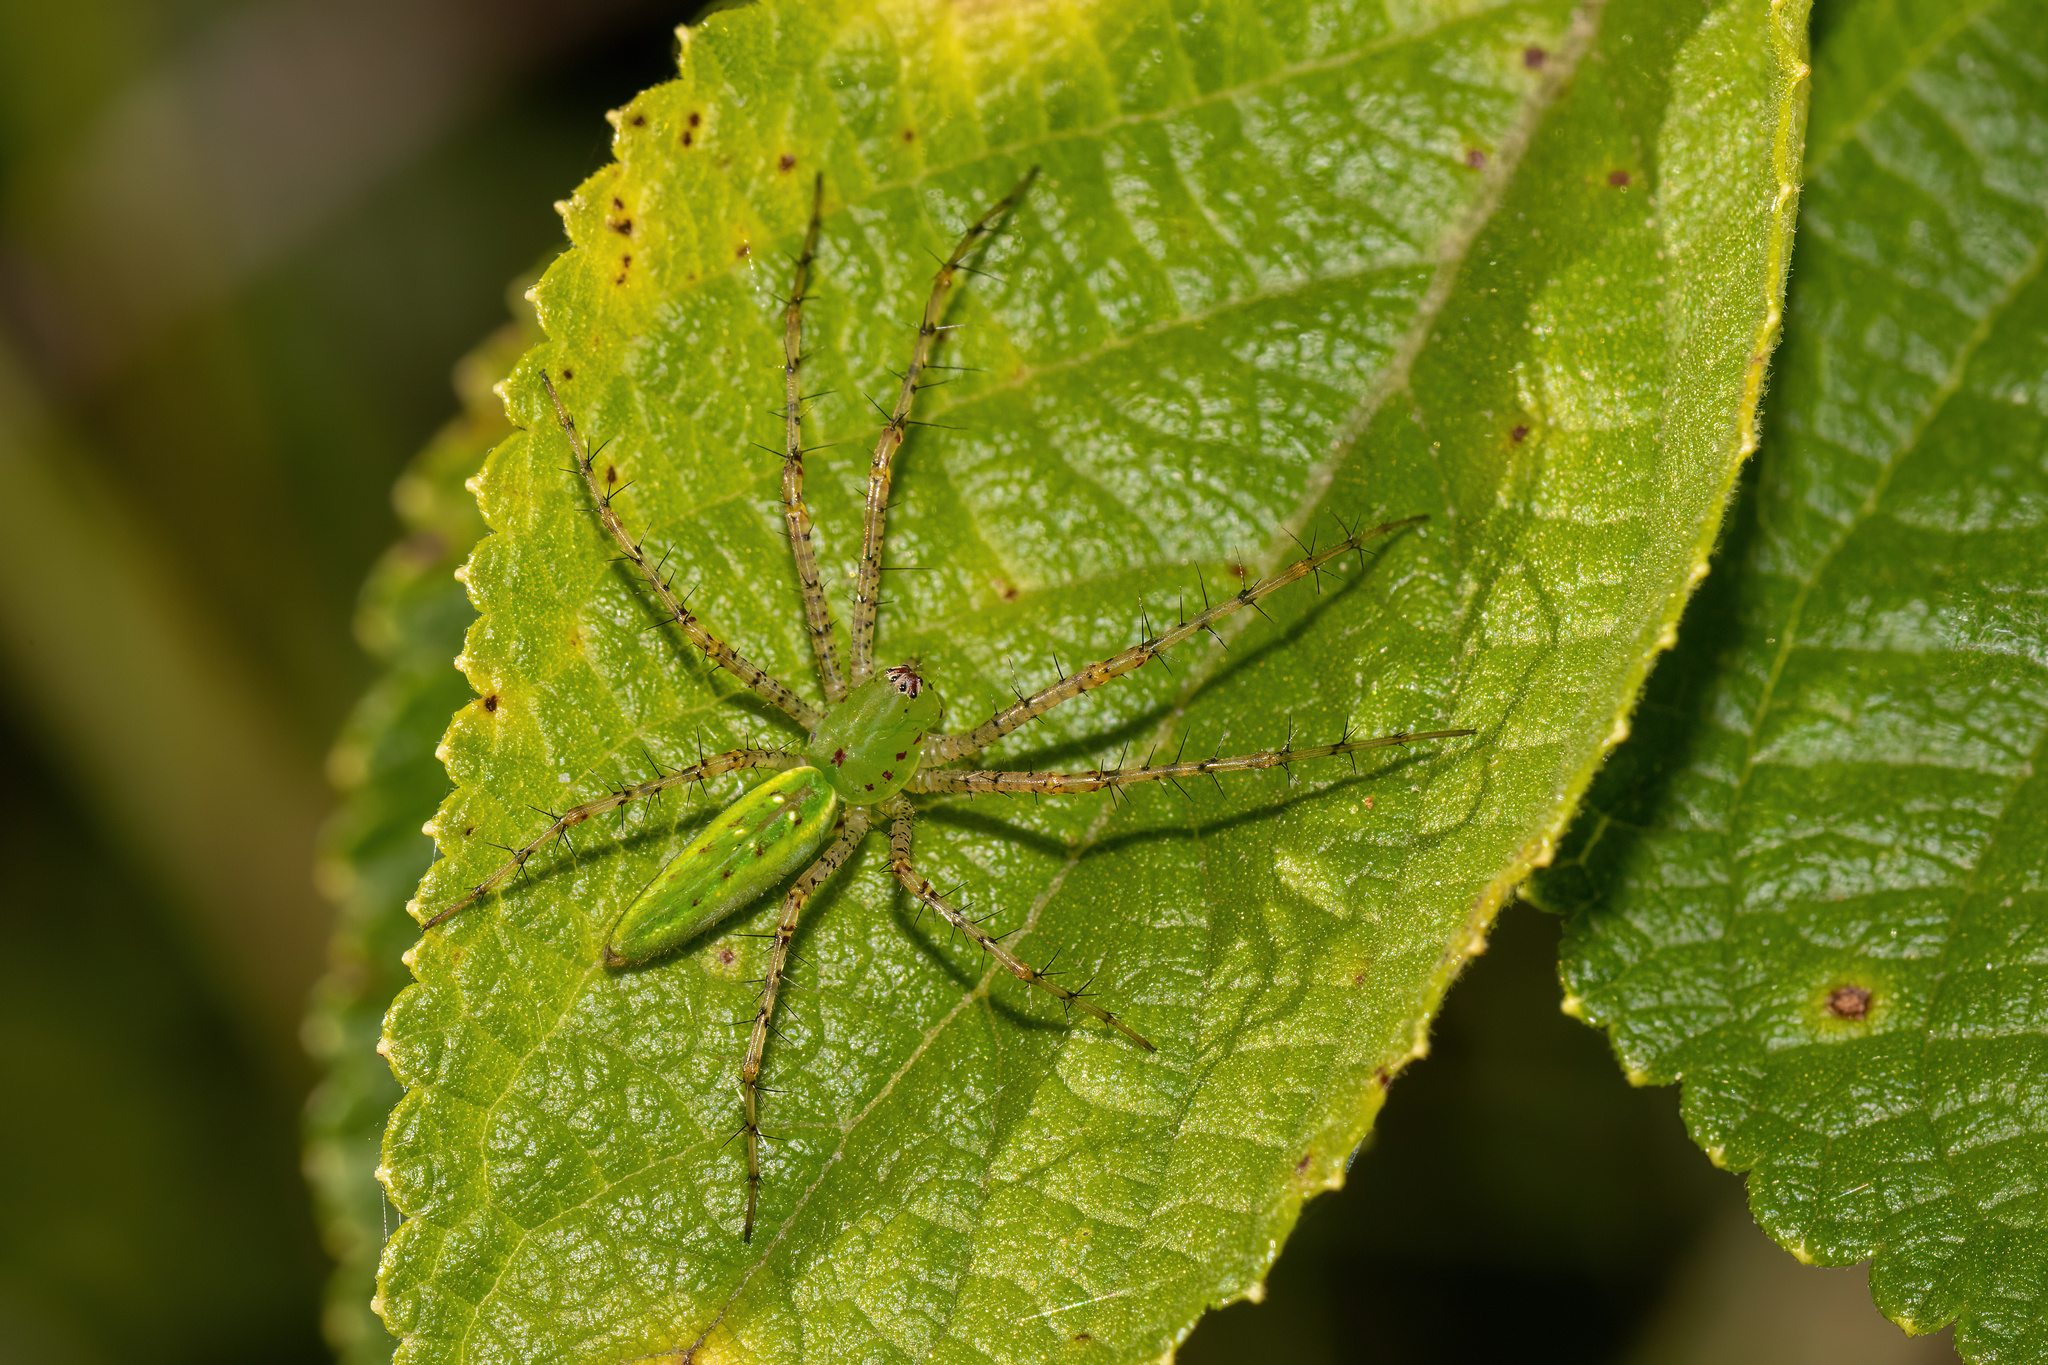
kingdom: Animalia
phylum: Arthropoda
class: Arachnida
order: Araneae
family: Oxyopidae
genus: Peucetia
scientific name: Peucetia viridans
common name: Lynx spiders
